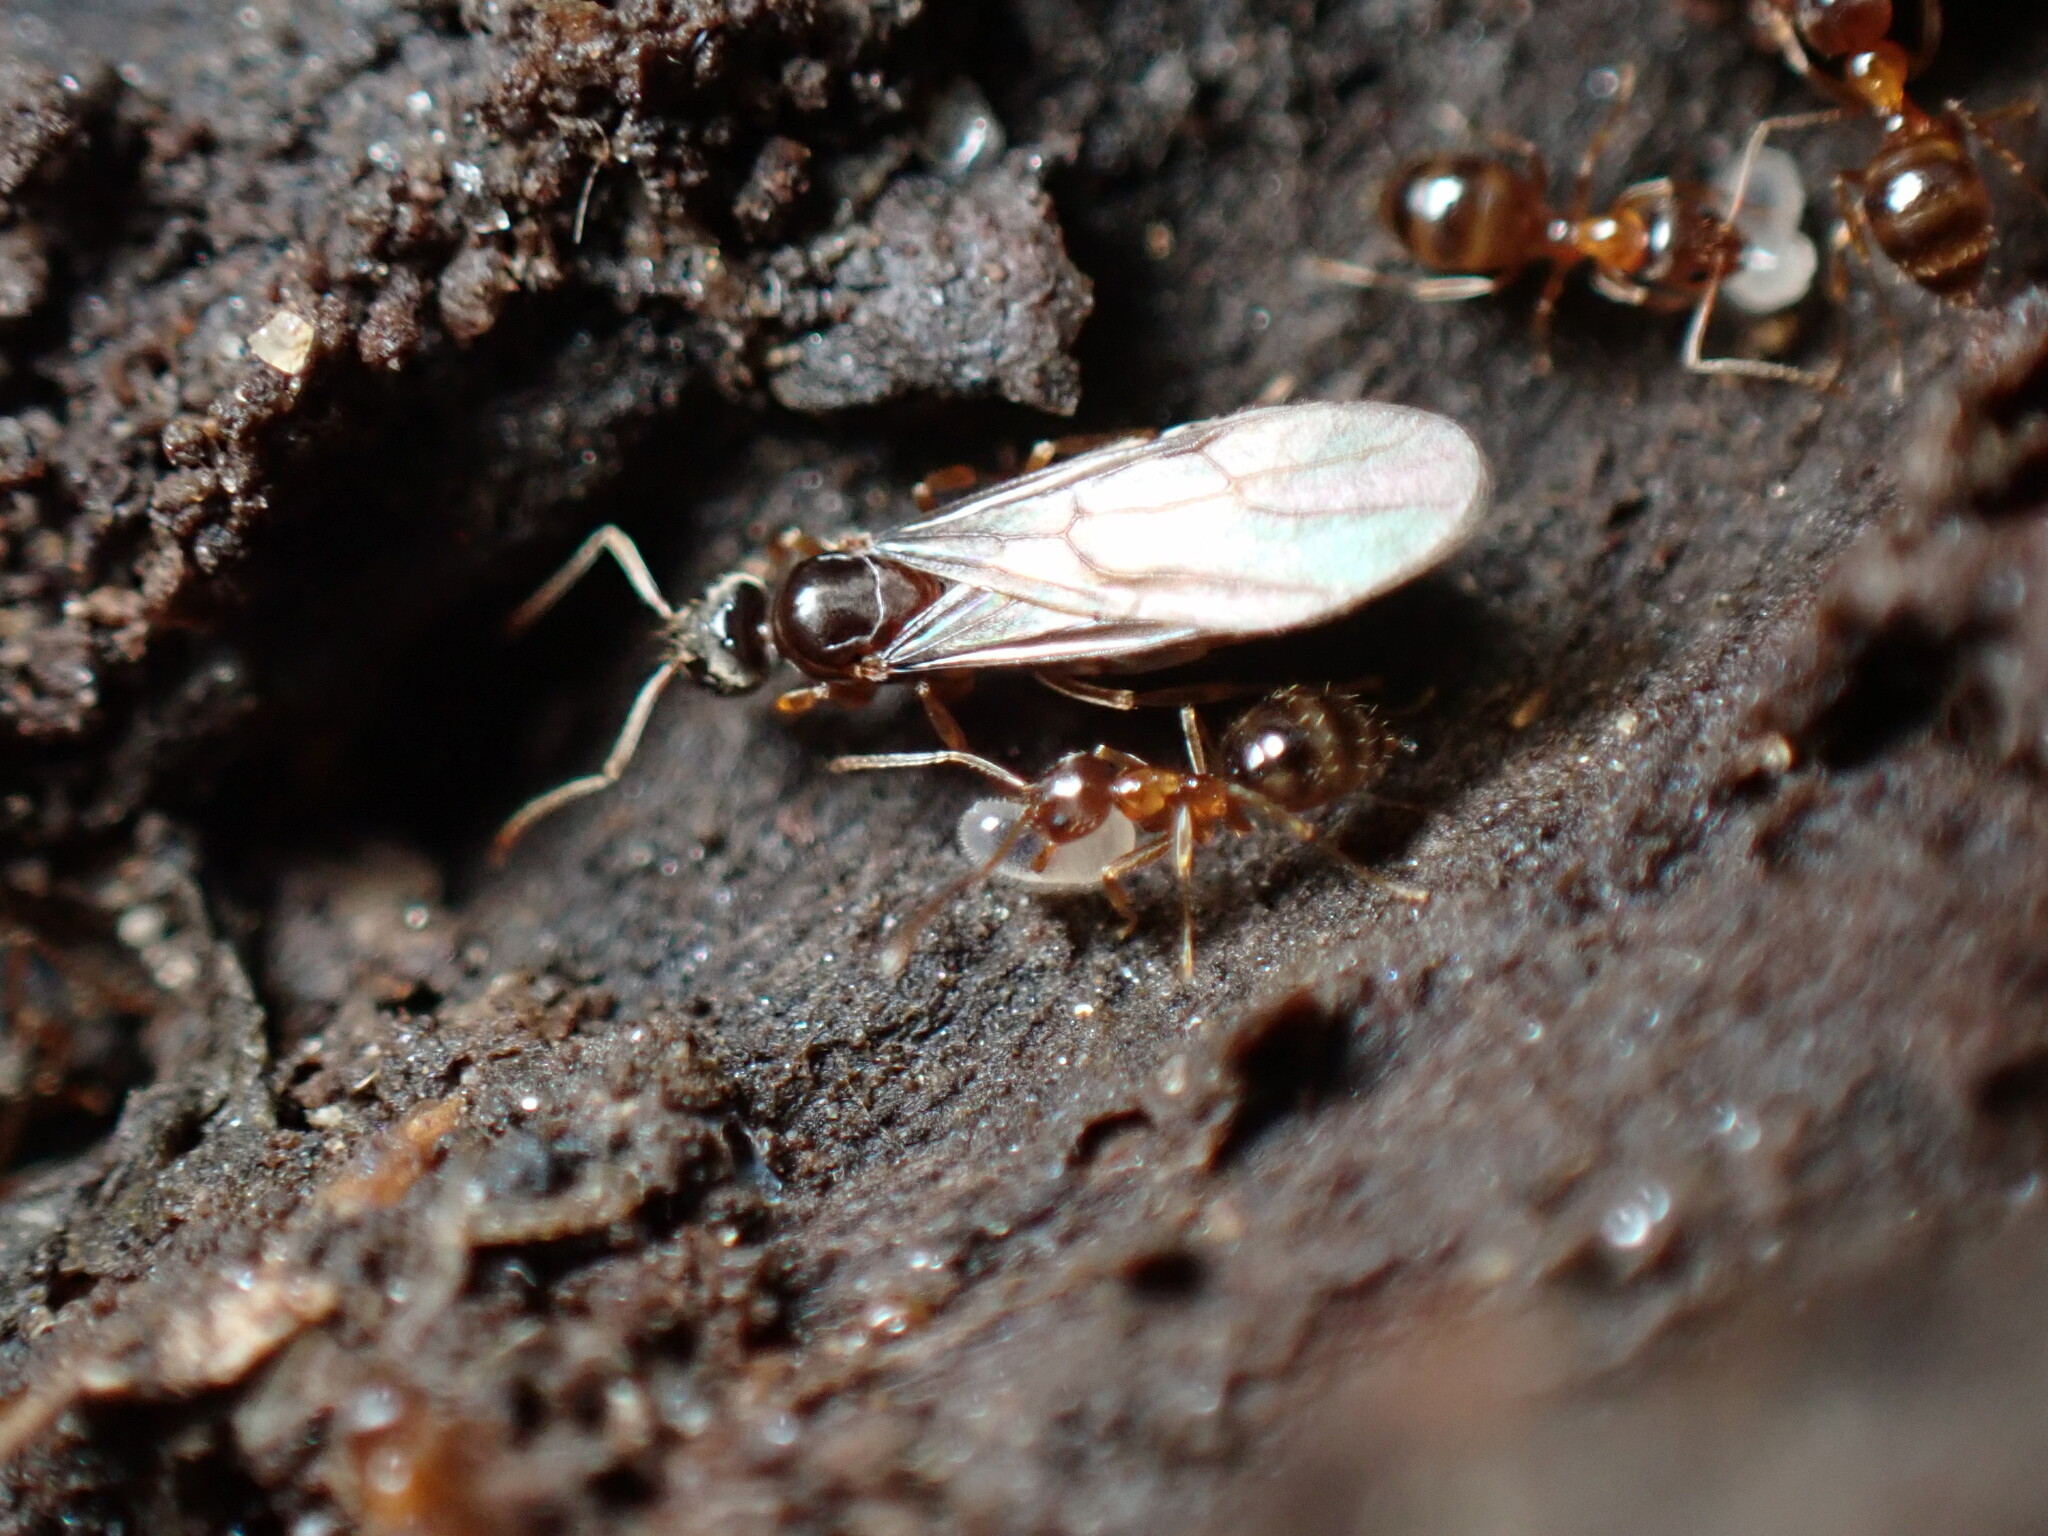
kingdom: Animalia
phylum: Arthropoda
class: Insecta
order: Hymenoptera
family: Formicidae
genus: Paratrechina
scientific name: Paratrechina flavipes
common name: Eastern asian formicine ant
